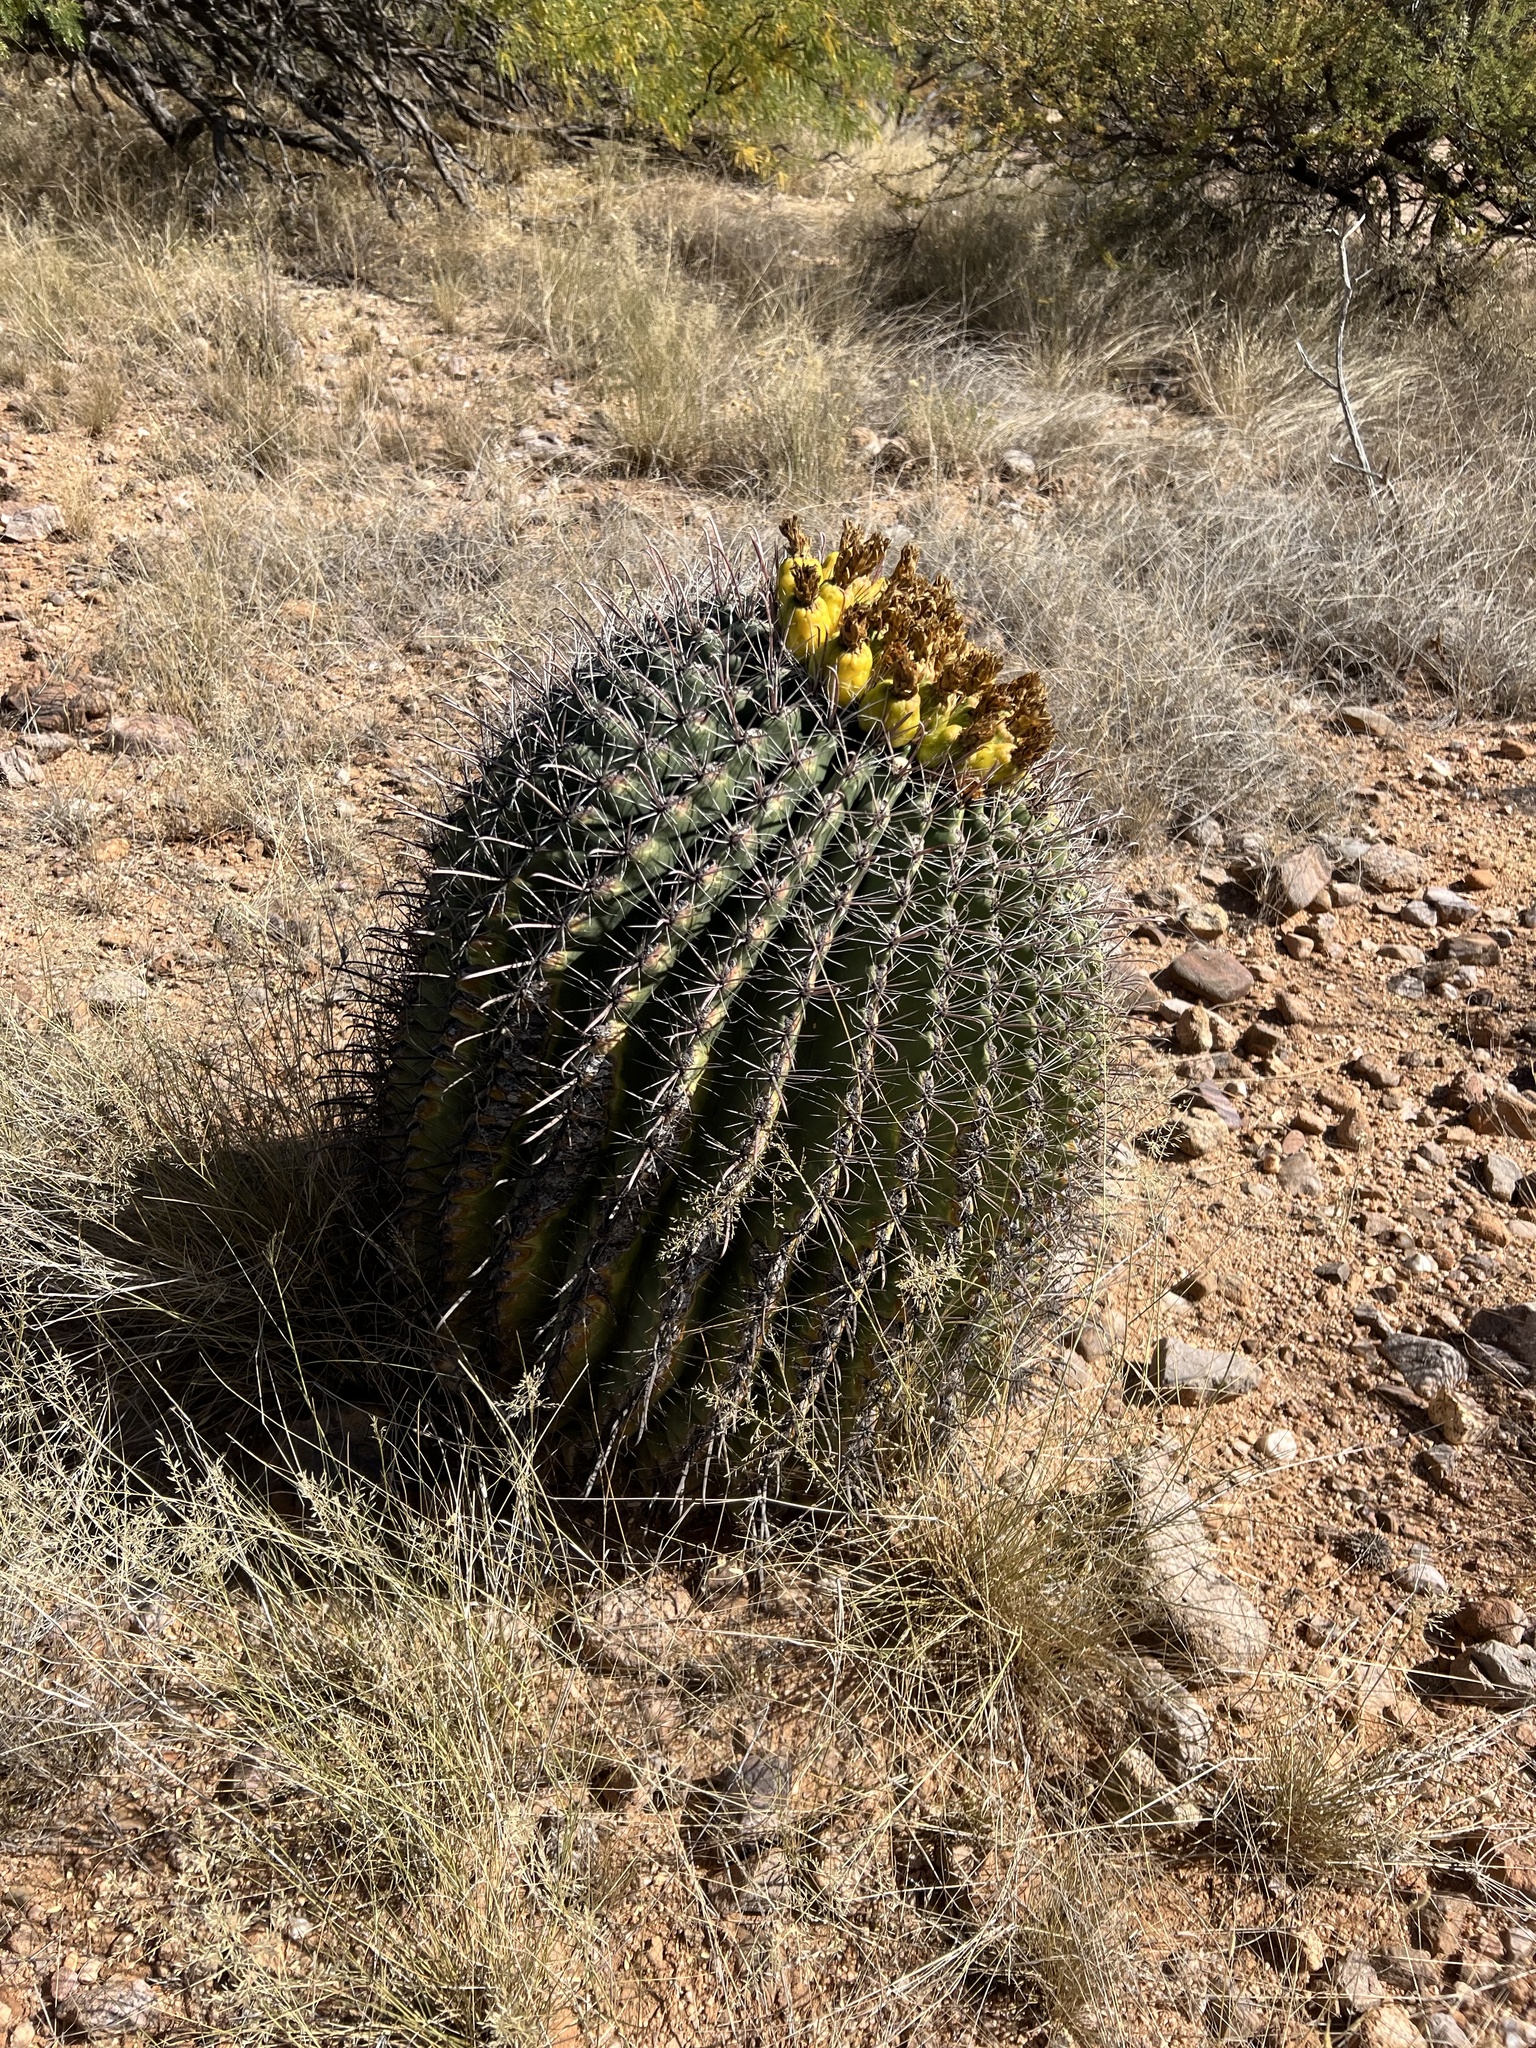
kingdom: Plantae
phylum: Tracheophyta
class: Magnoliopsida
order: Caryophyllales
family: Cactaceae
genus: Ferocactus
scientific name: Ferocactus wislizeni
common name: Candy barrel cactus
